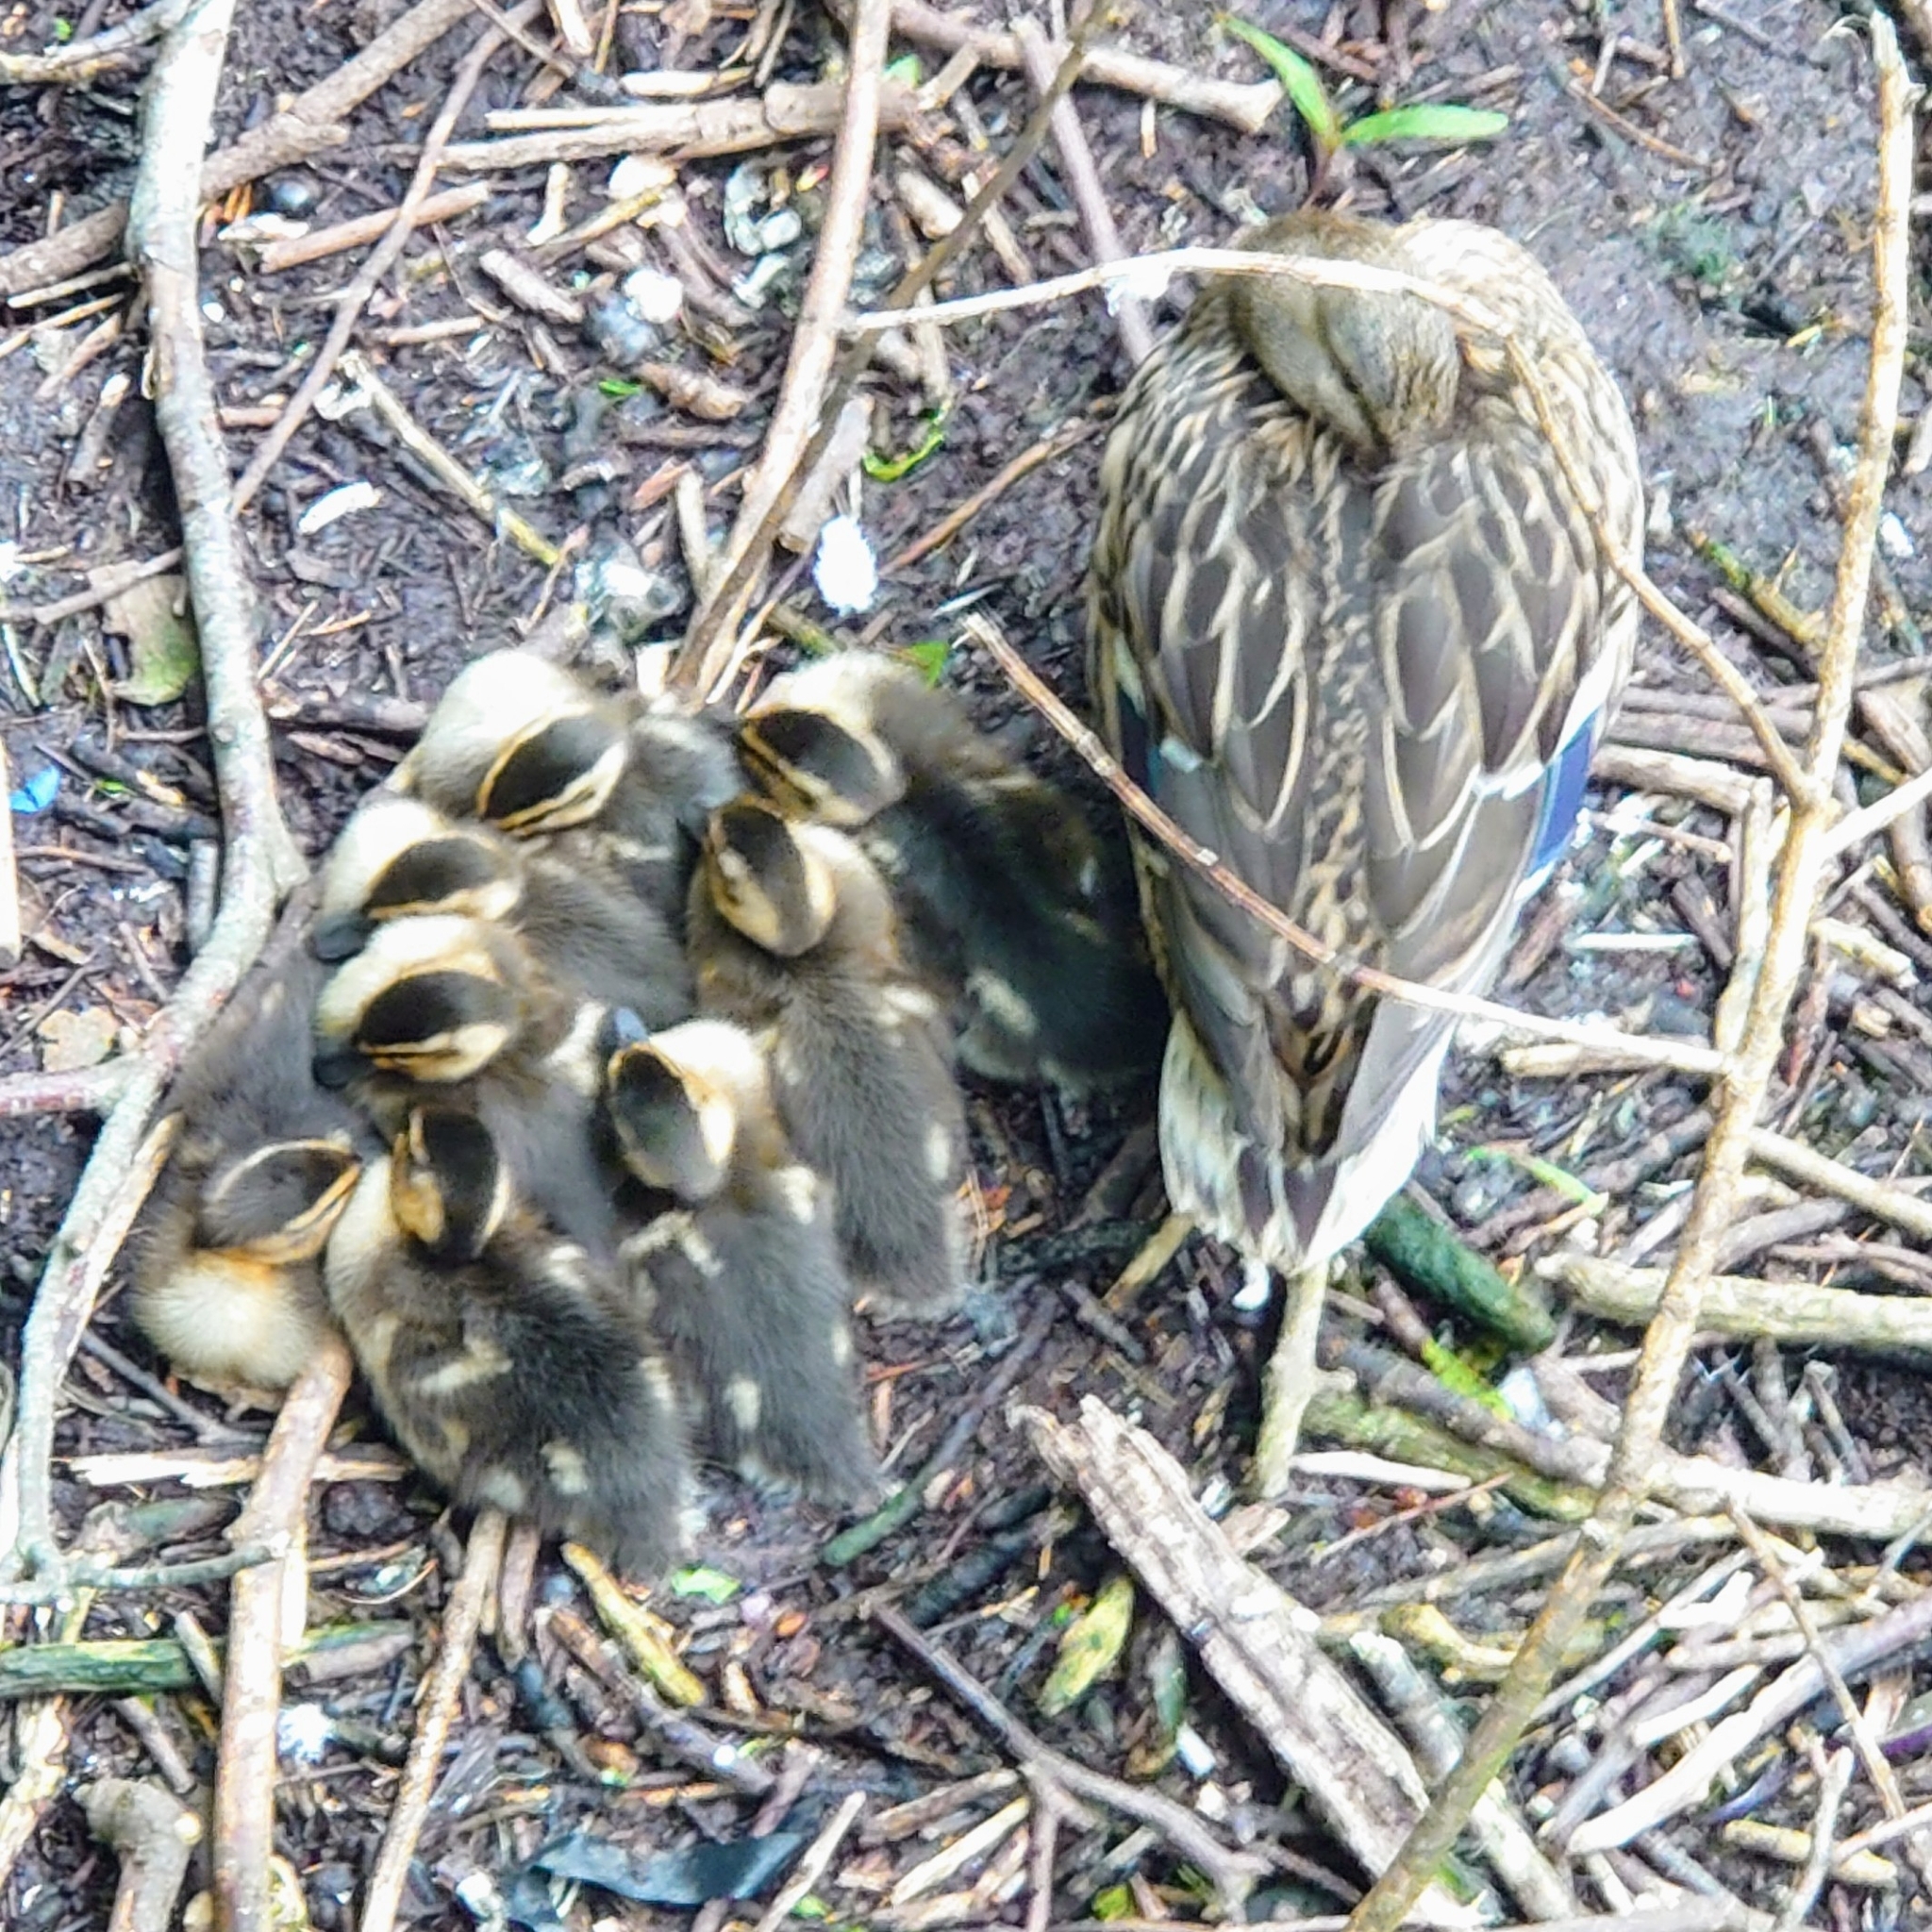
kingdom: Animalia
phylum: Chordata
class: Aves
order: Anseriformes
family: Anatidae
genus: Anas
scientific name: Anas platyrhynchos
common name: Mallard
